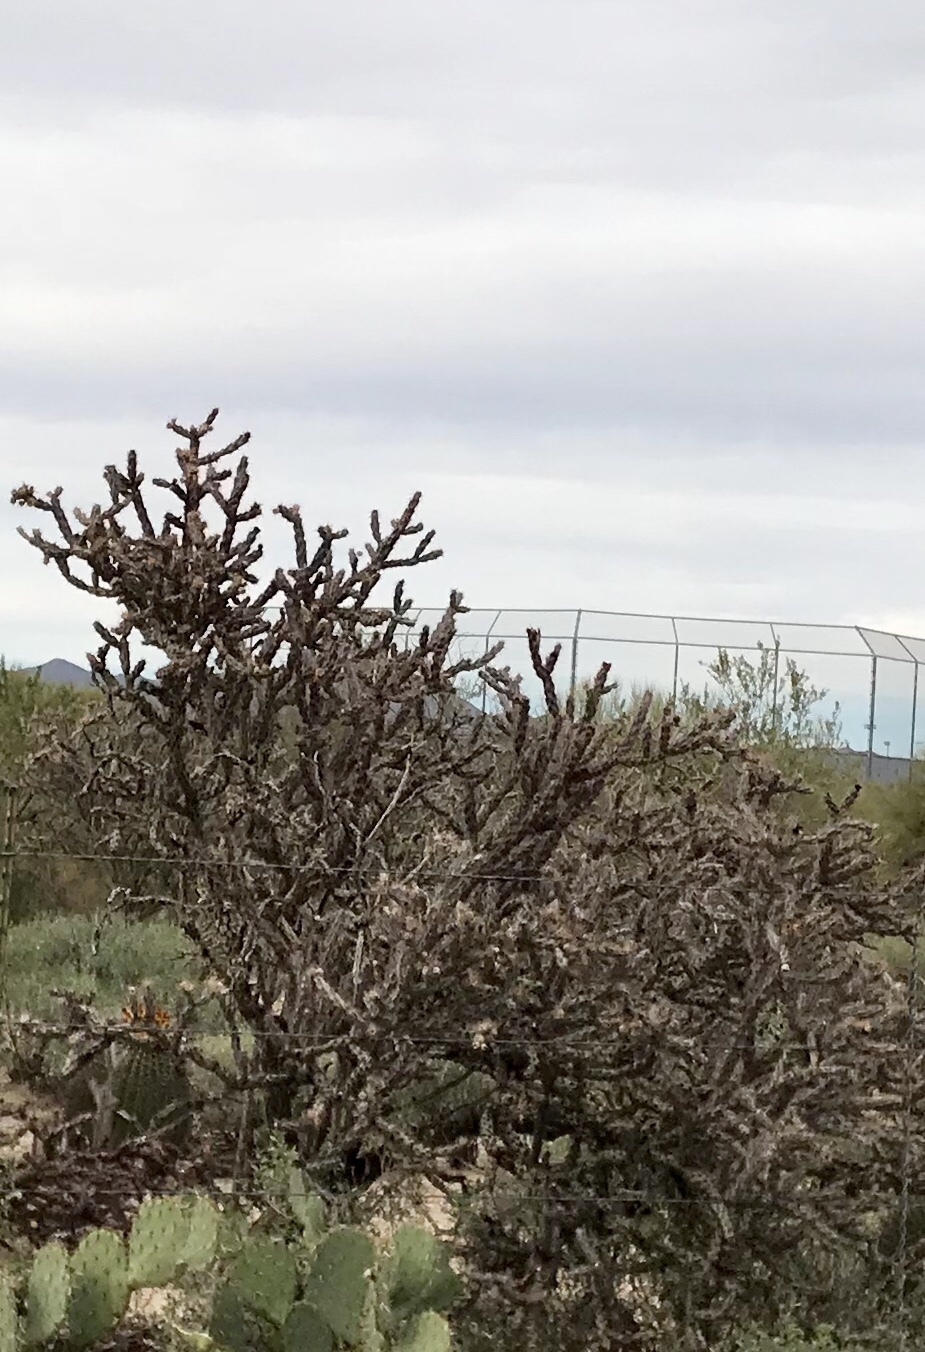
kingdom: Plantae
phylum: Tracheophyta
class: Magnoliopsida
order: Caryophyllales
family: Cactaceae
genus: Cylindropuntia
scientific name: Cylindropuntia thurberi
